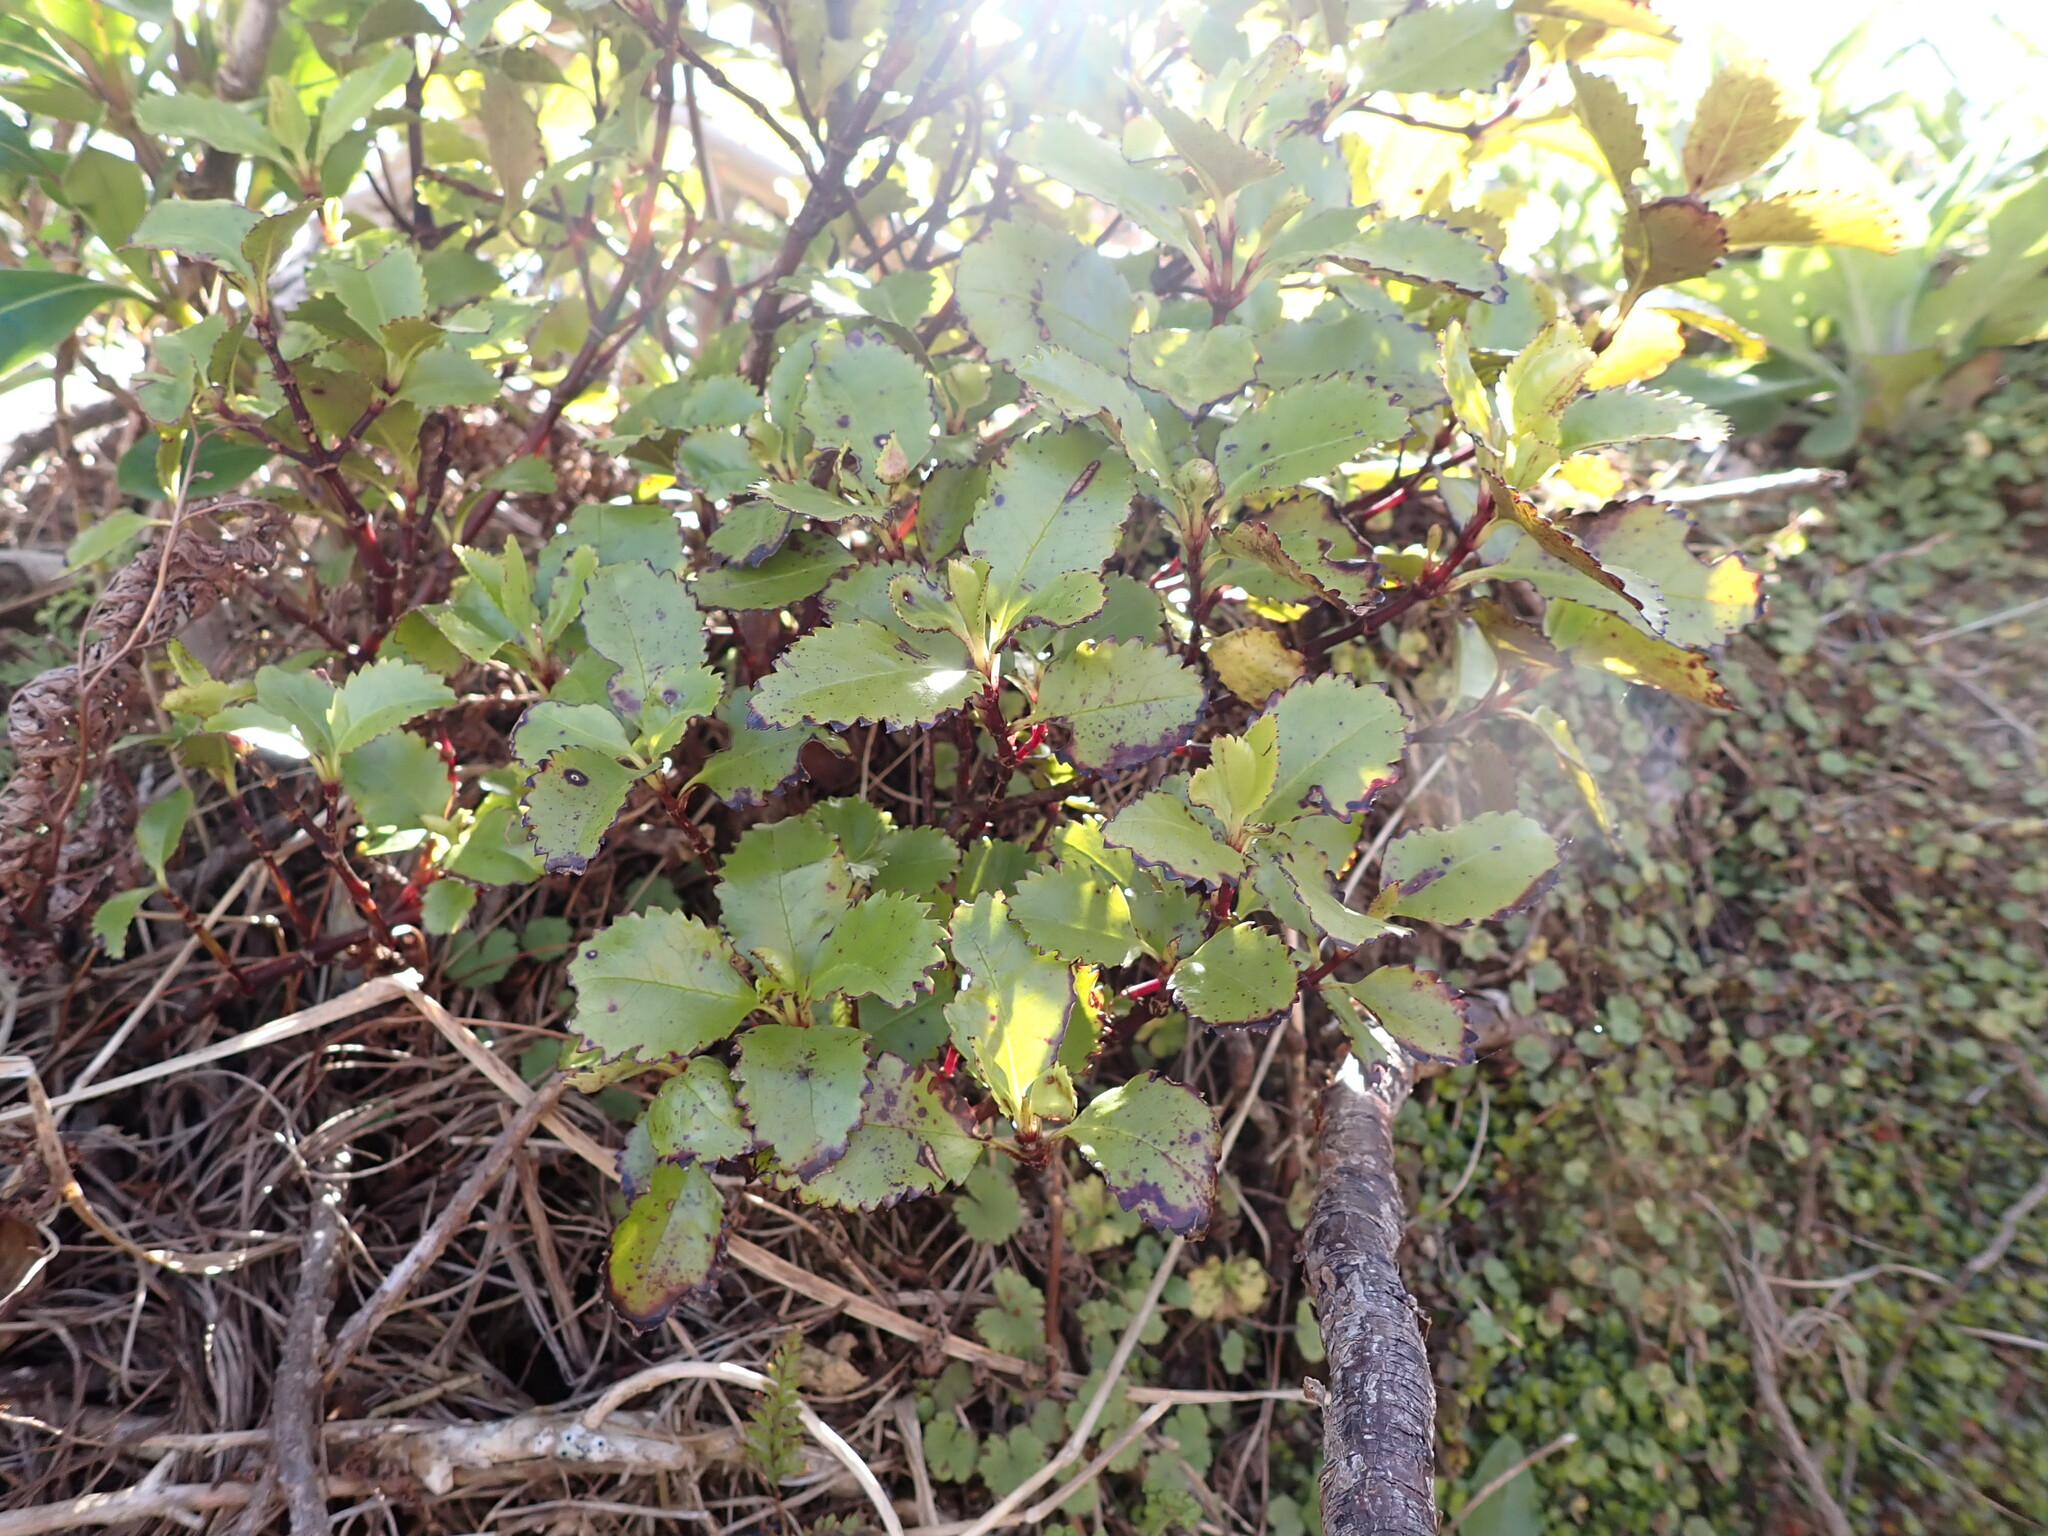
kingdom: Plantae
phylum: Tracheophyta
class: Magnoliopsida
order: Chloranthales
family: Chloranthaceae
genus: Ascarina
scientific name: Ascarina lucida
